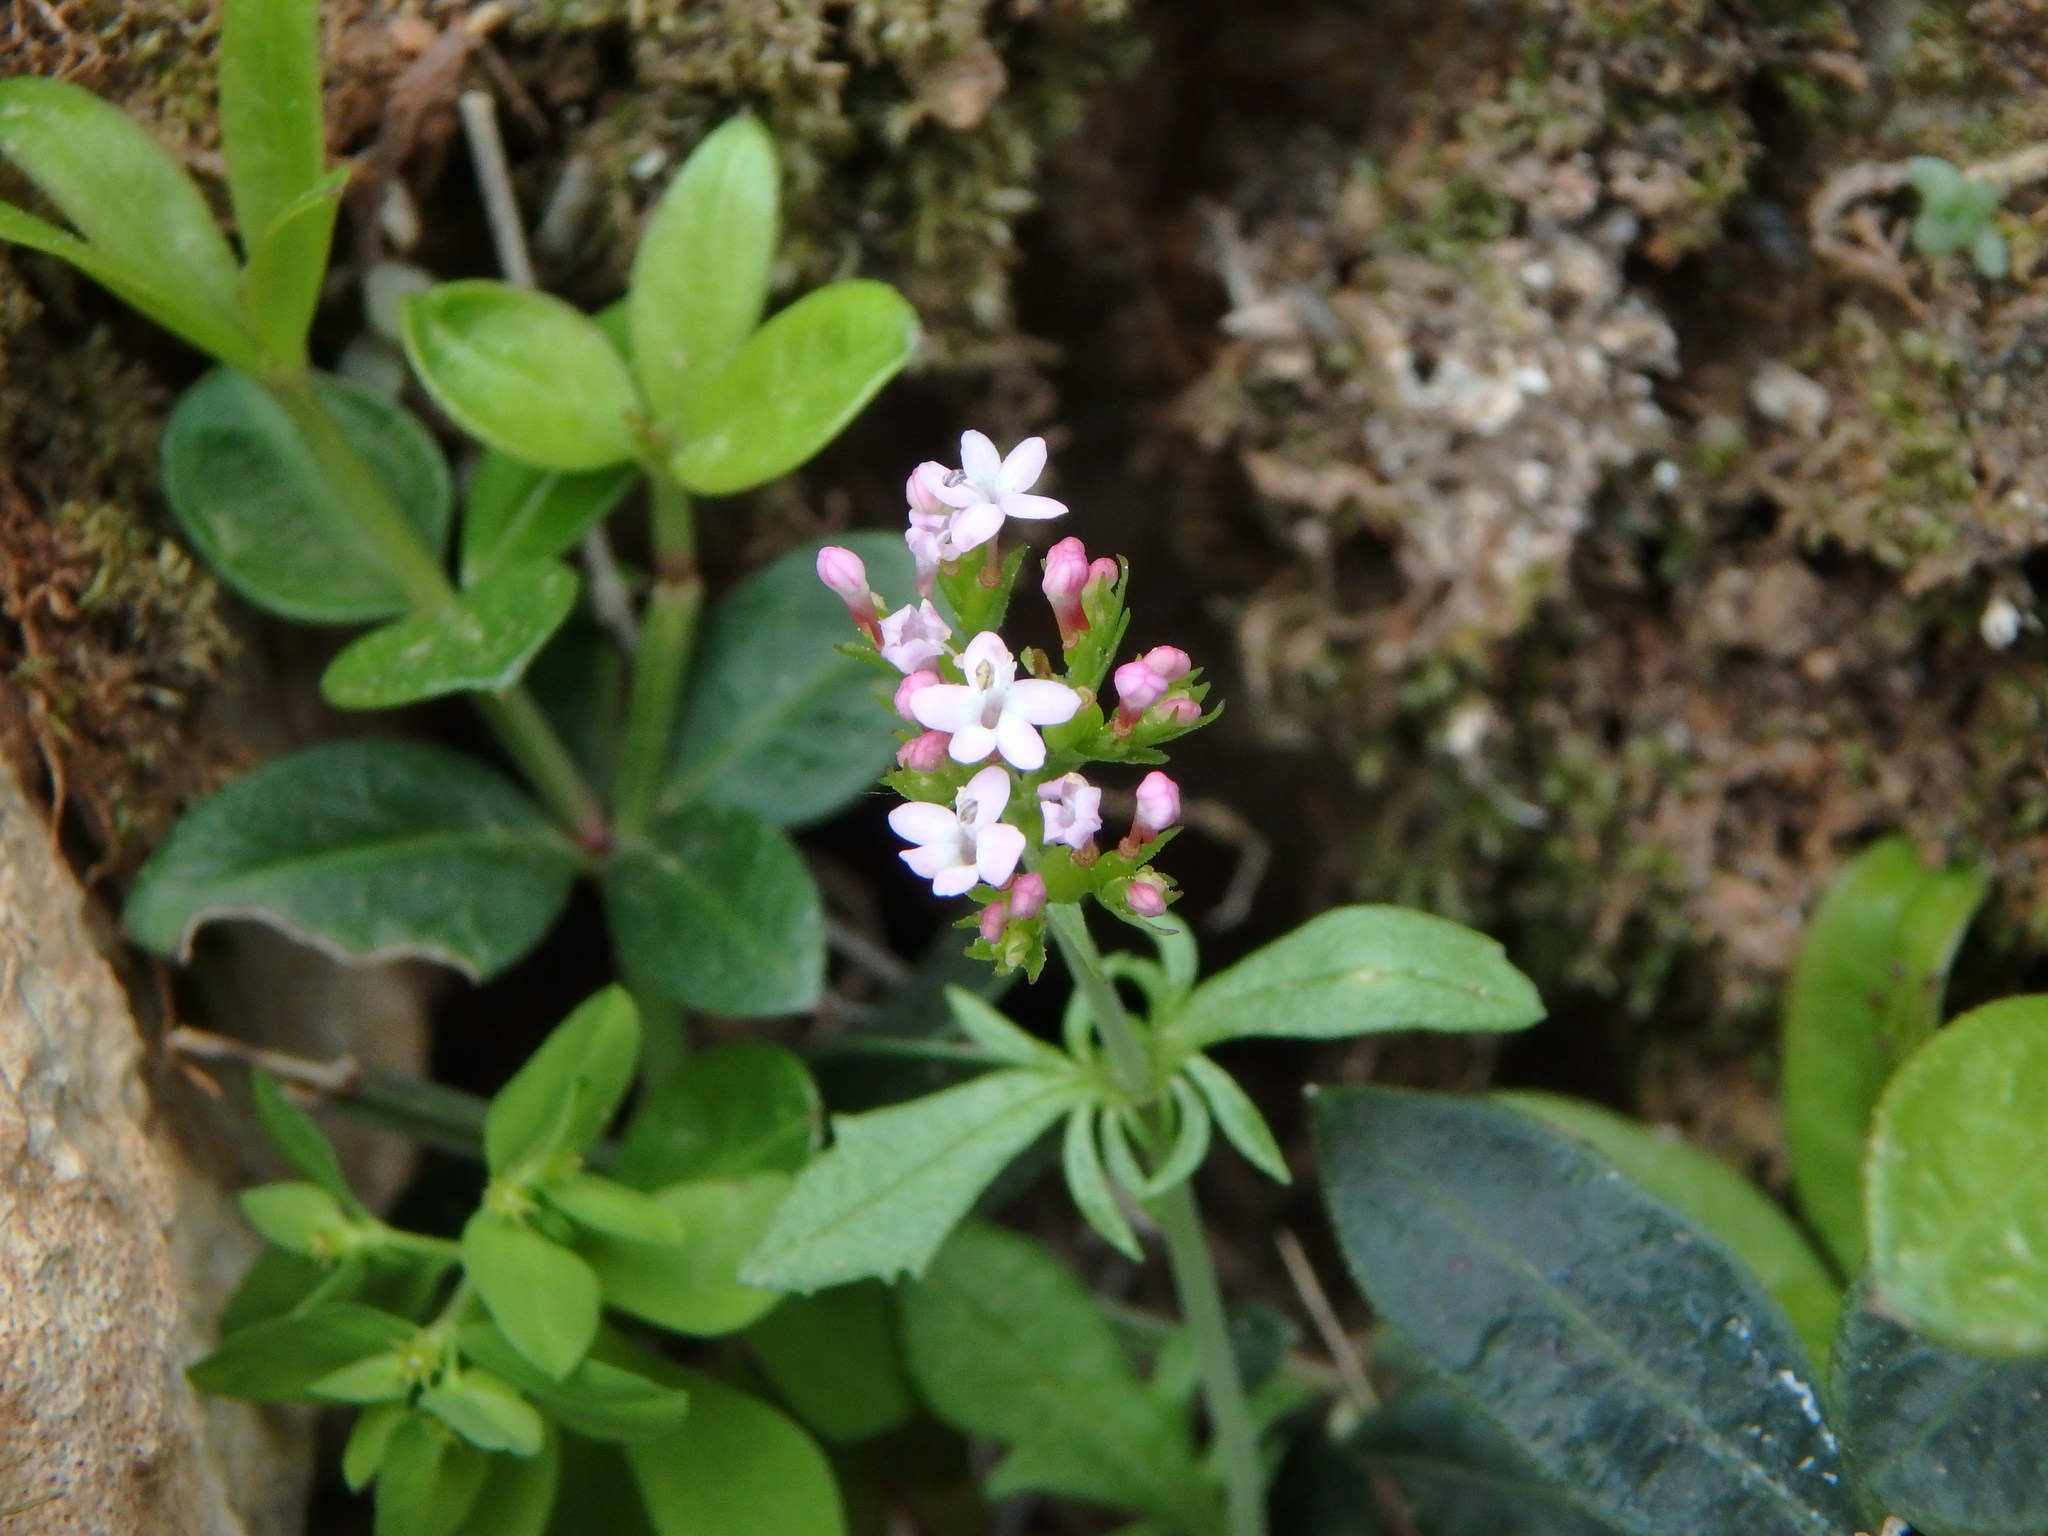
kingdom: Plantae
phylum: Tracheophyta
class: Magnoliopsida
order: Dipsacales
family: Caprifoliaceae
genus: Centranthus
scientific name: Centranthus calcitrapae
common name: Annual valerian
